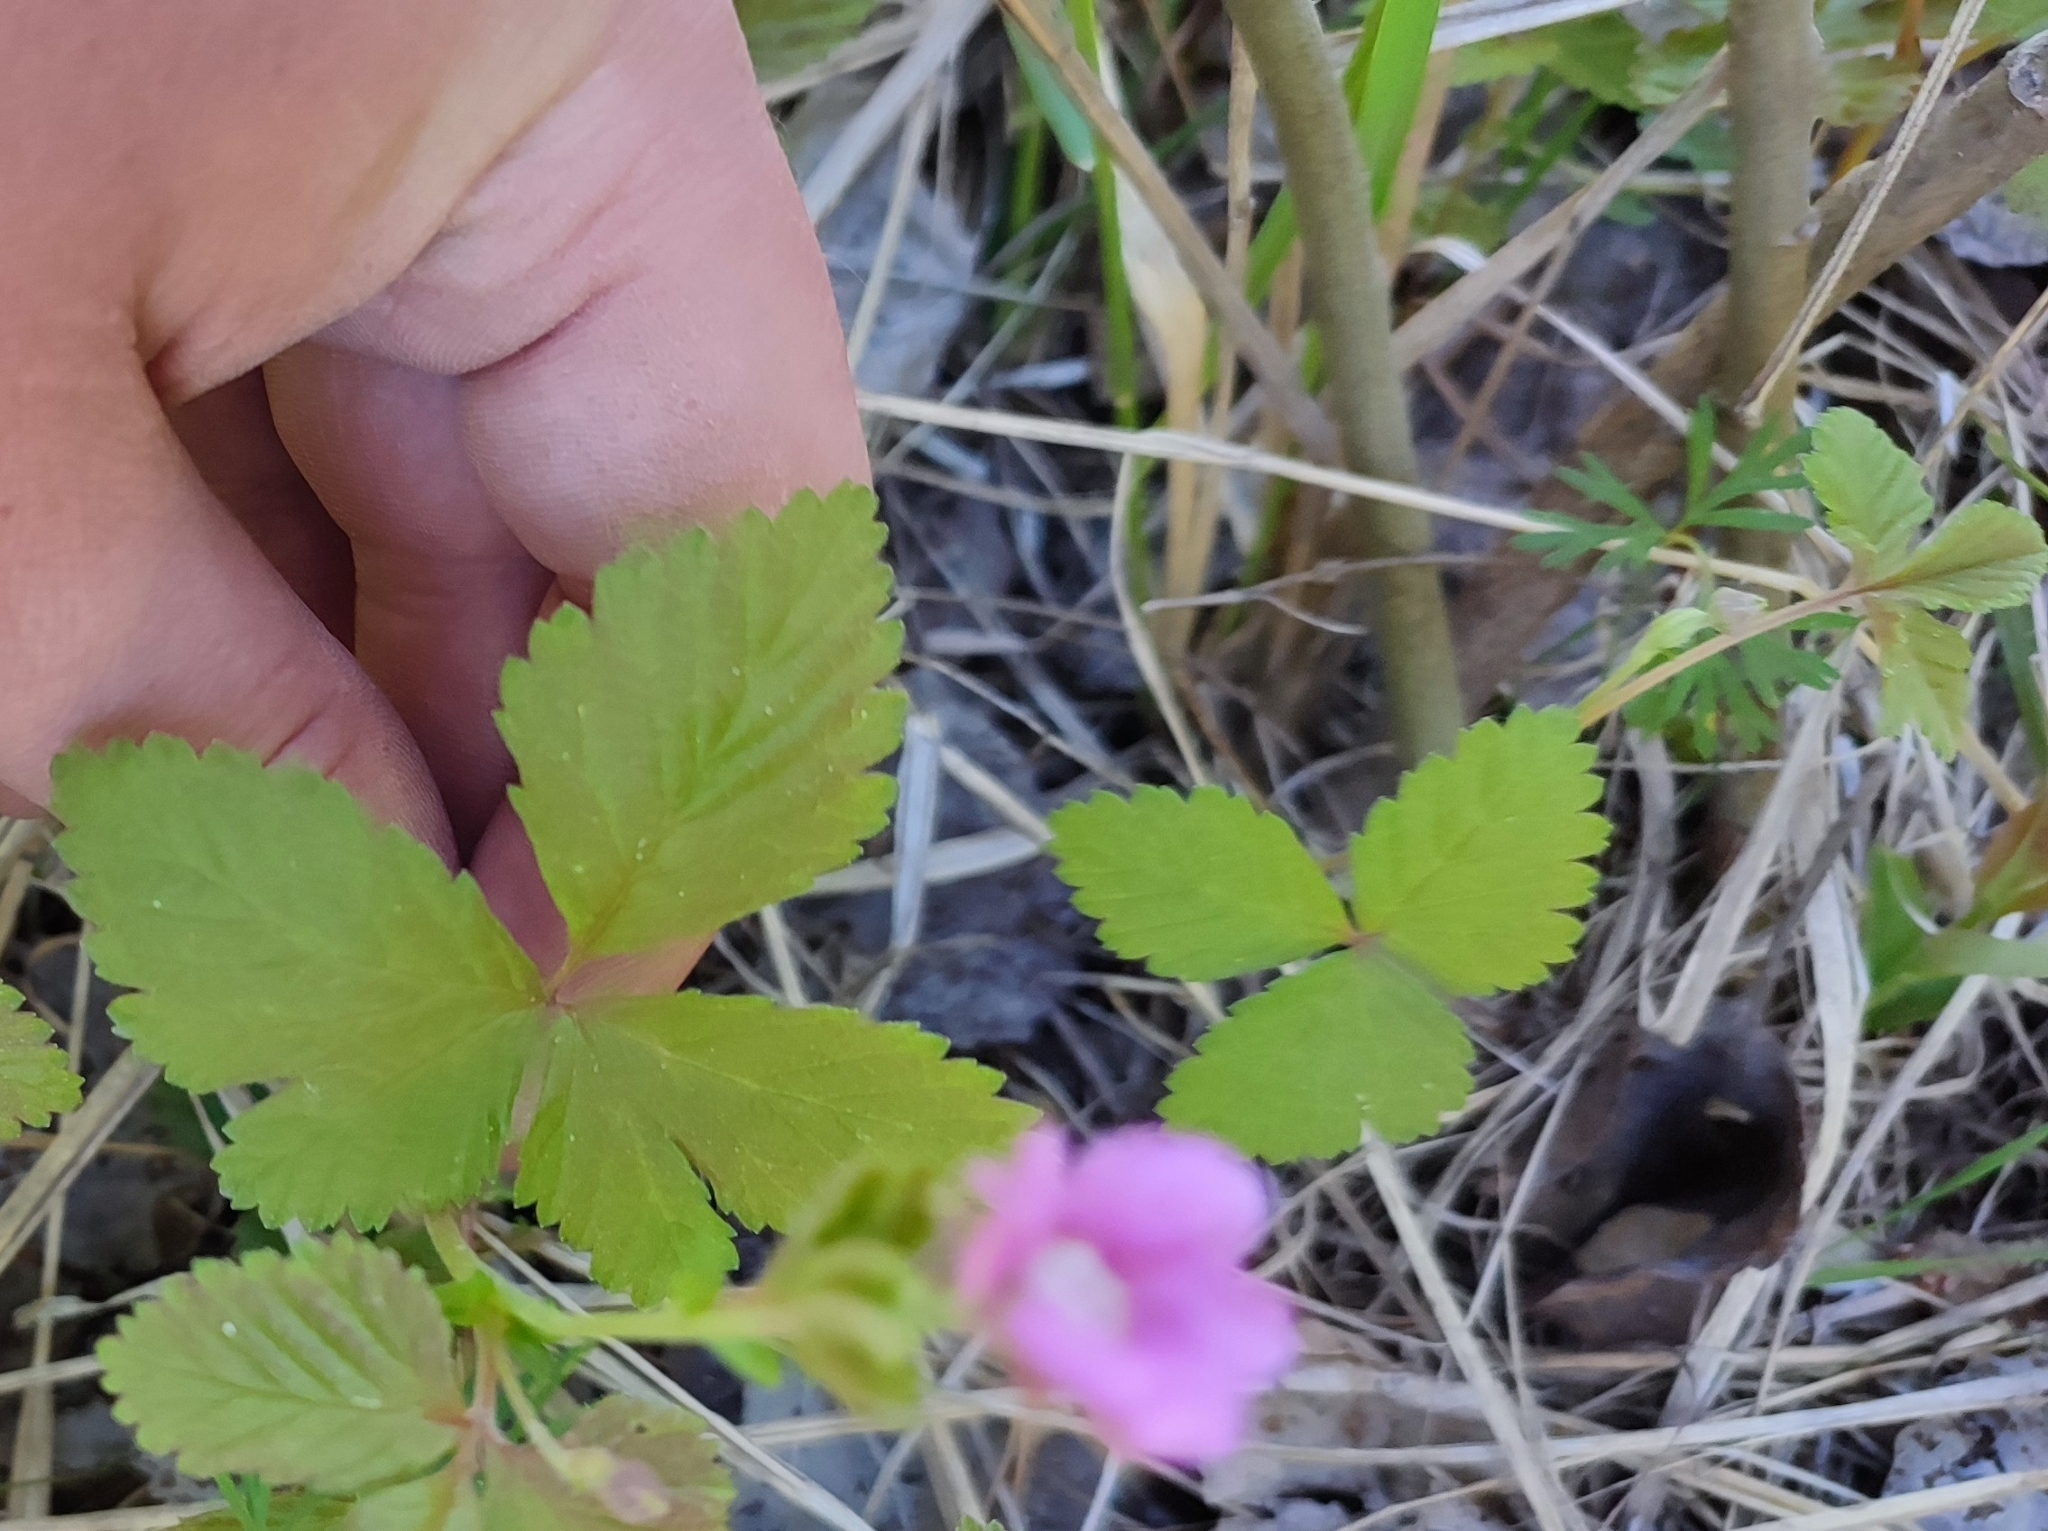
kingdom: Plantae
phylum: Tracheophyta
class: Magnoliopsida
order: Rosales
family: Rosaceae
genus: Rubus
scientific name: Rubus arcticus
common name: Arctic bramble
